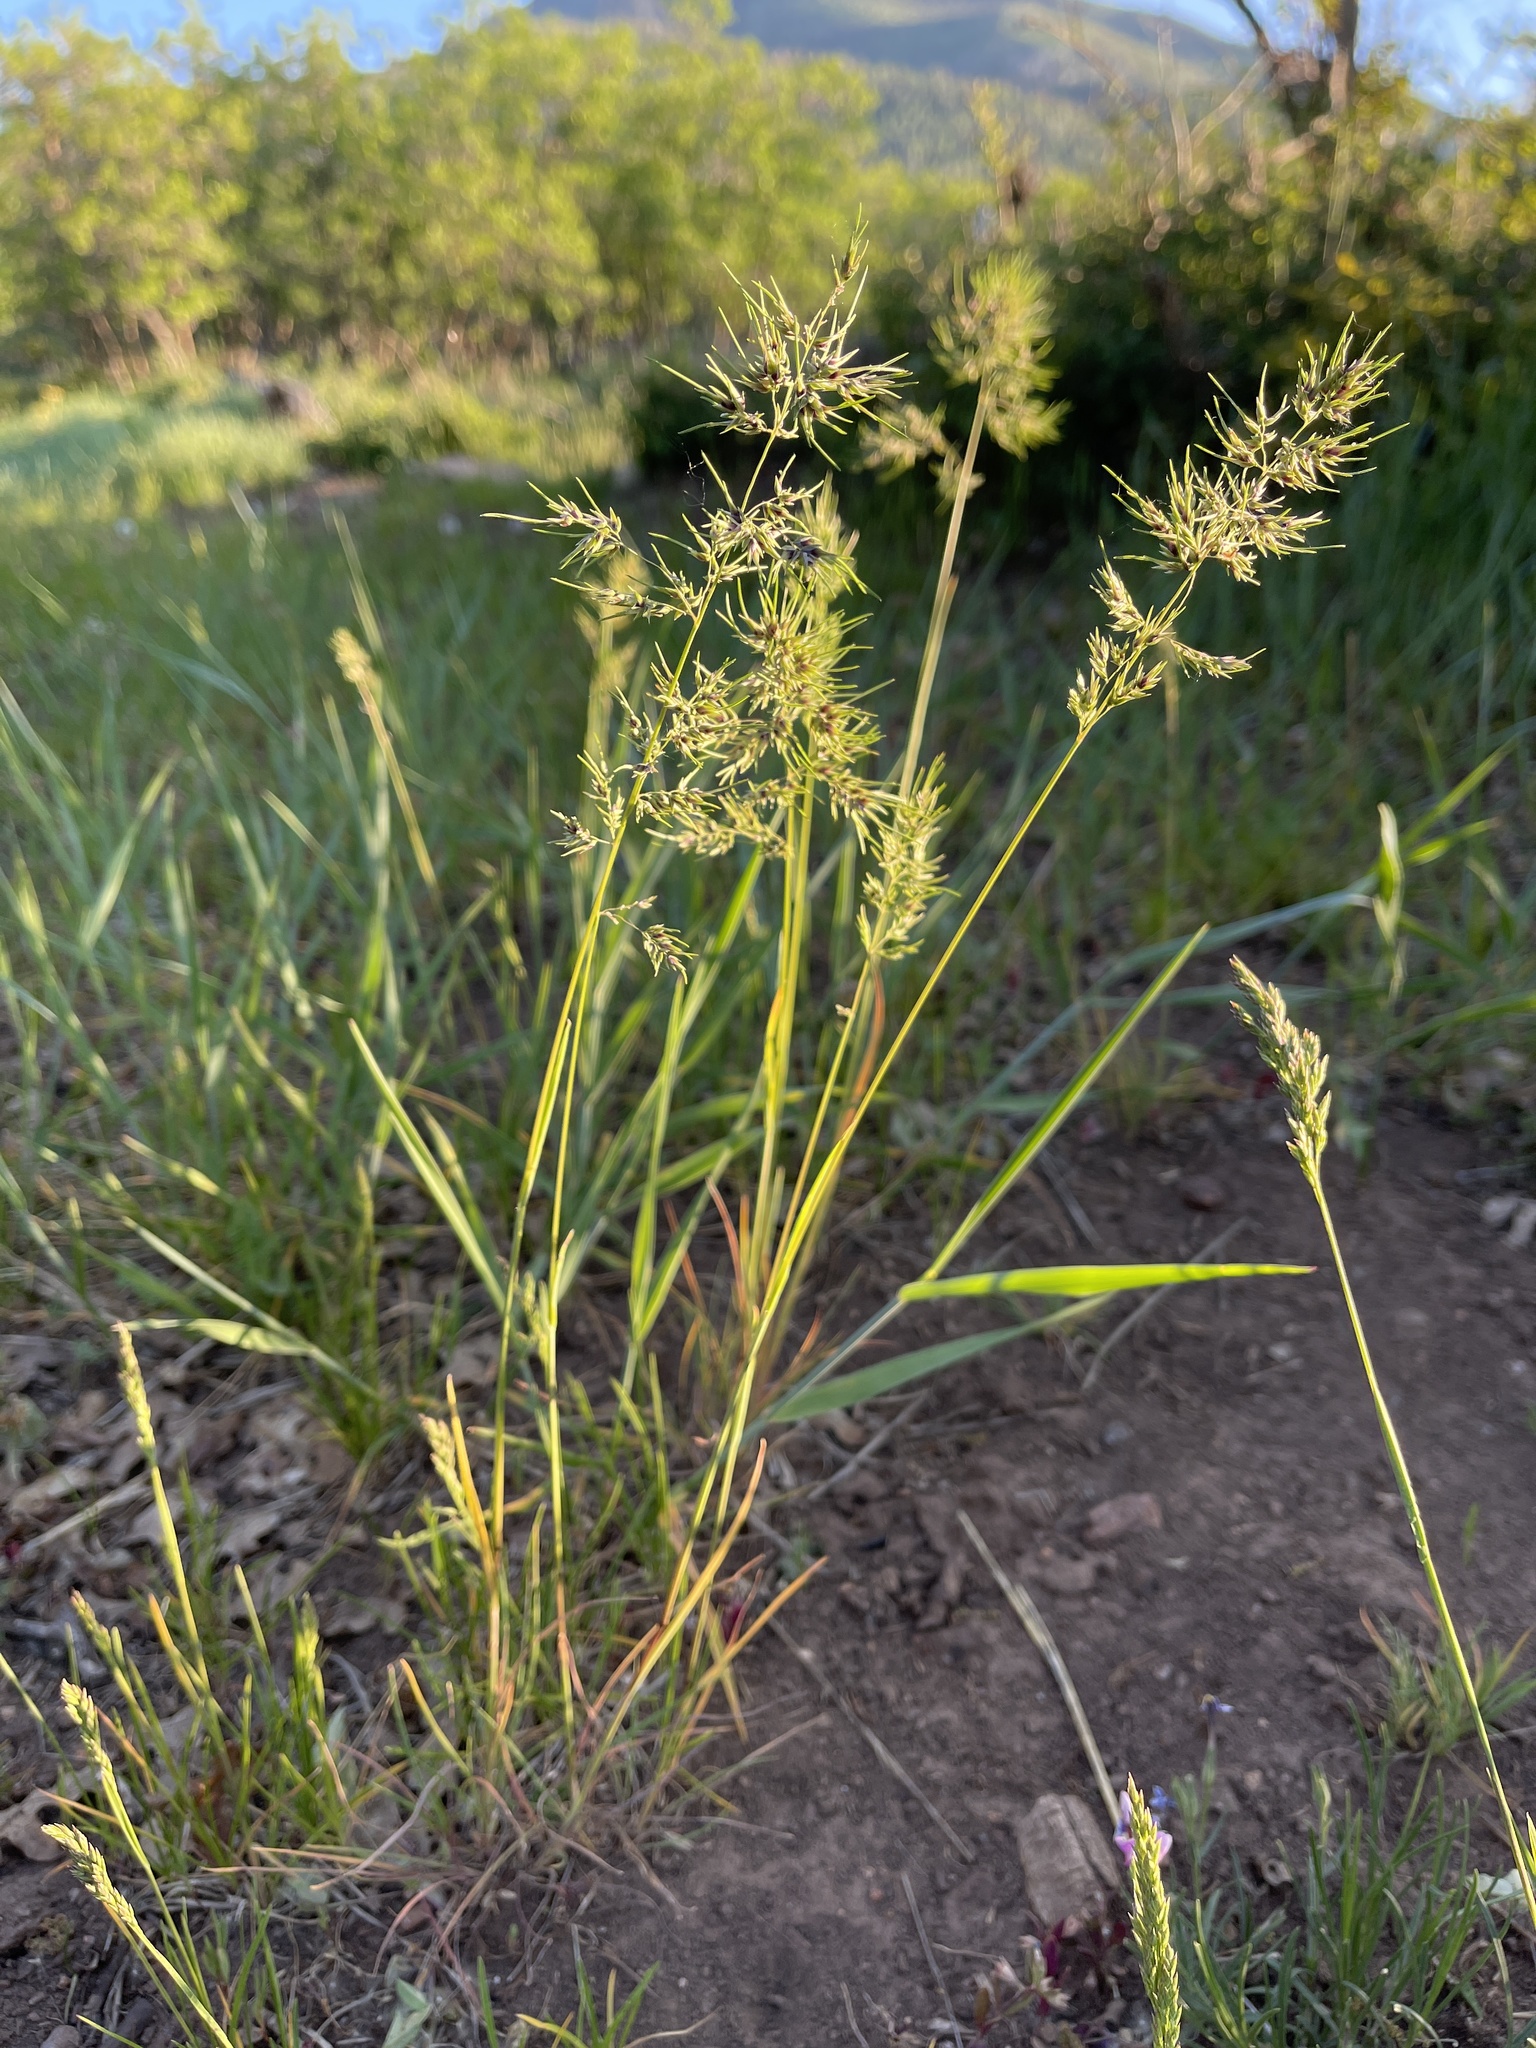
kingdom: Plantae
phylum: Tracheophyta
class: Liliopsida
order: Poales
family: Poaceae
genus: Poa
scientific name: Poa bulbosa
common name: Bulbous bluegrass
